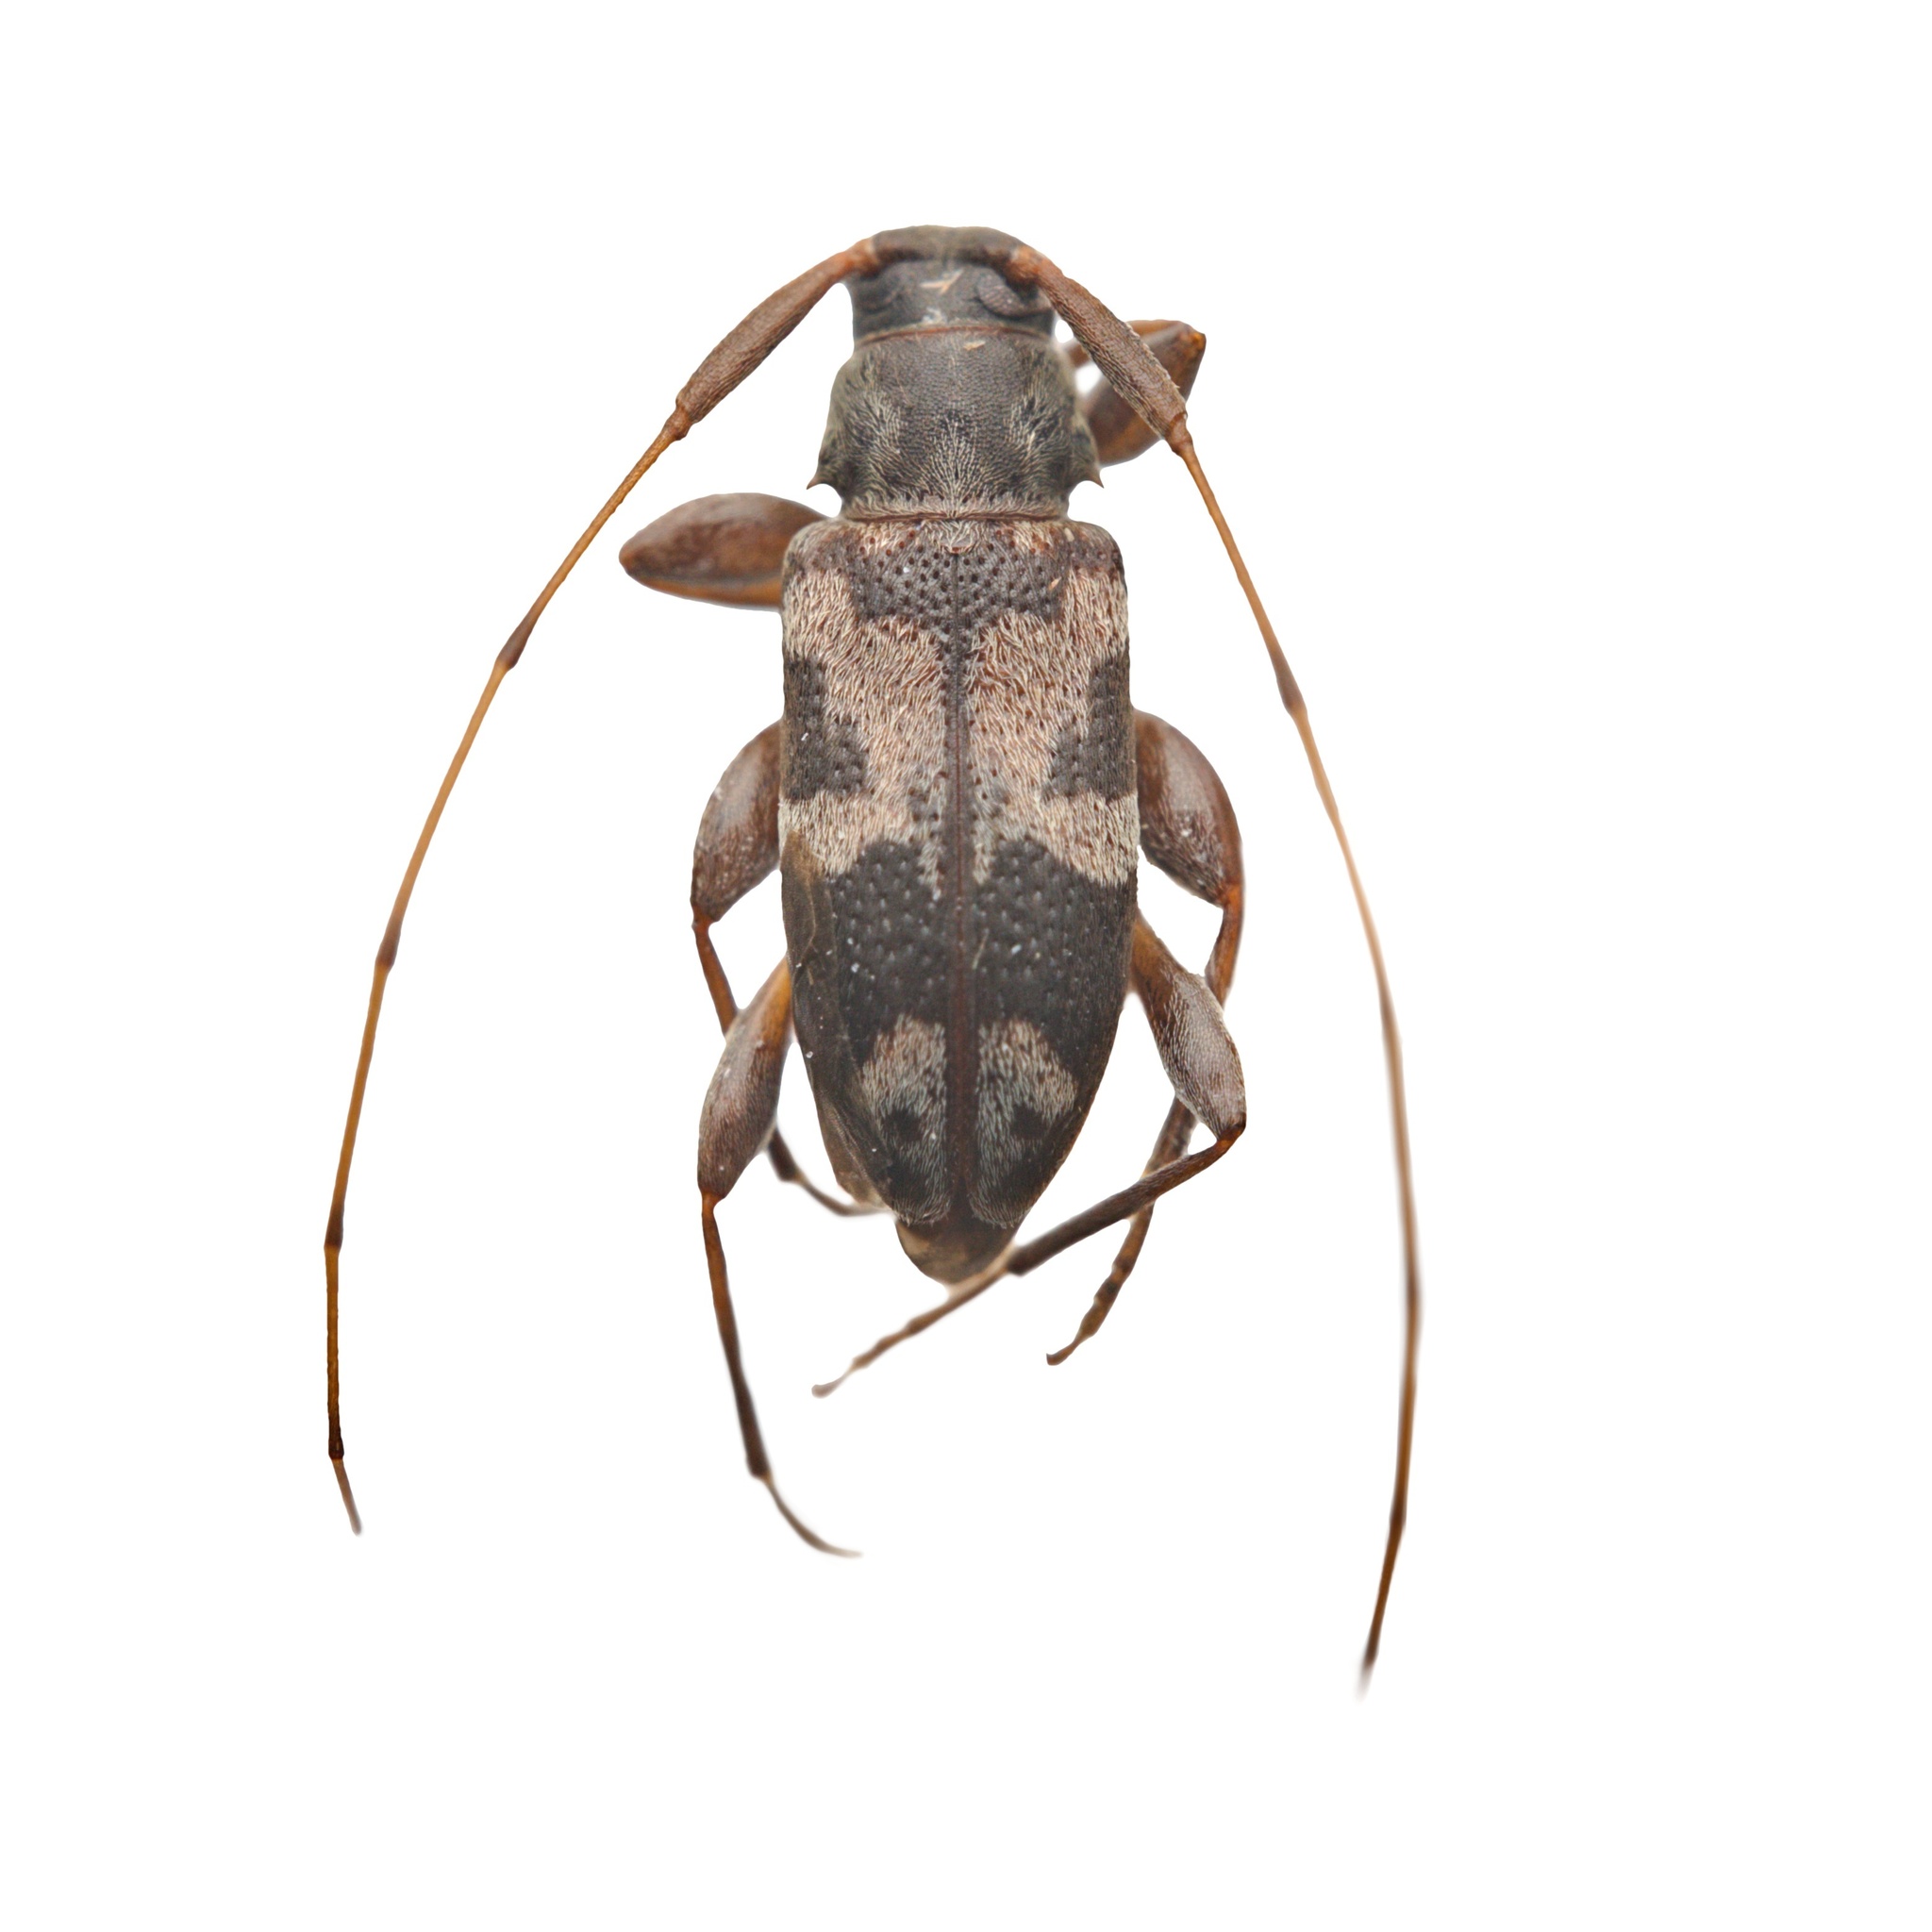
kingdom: Animalia
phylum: Arthropoda
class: Insecta
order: Coleoptera
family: Cerambycidae
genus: Urgleptes
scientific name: Urgleptes querci
